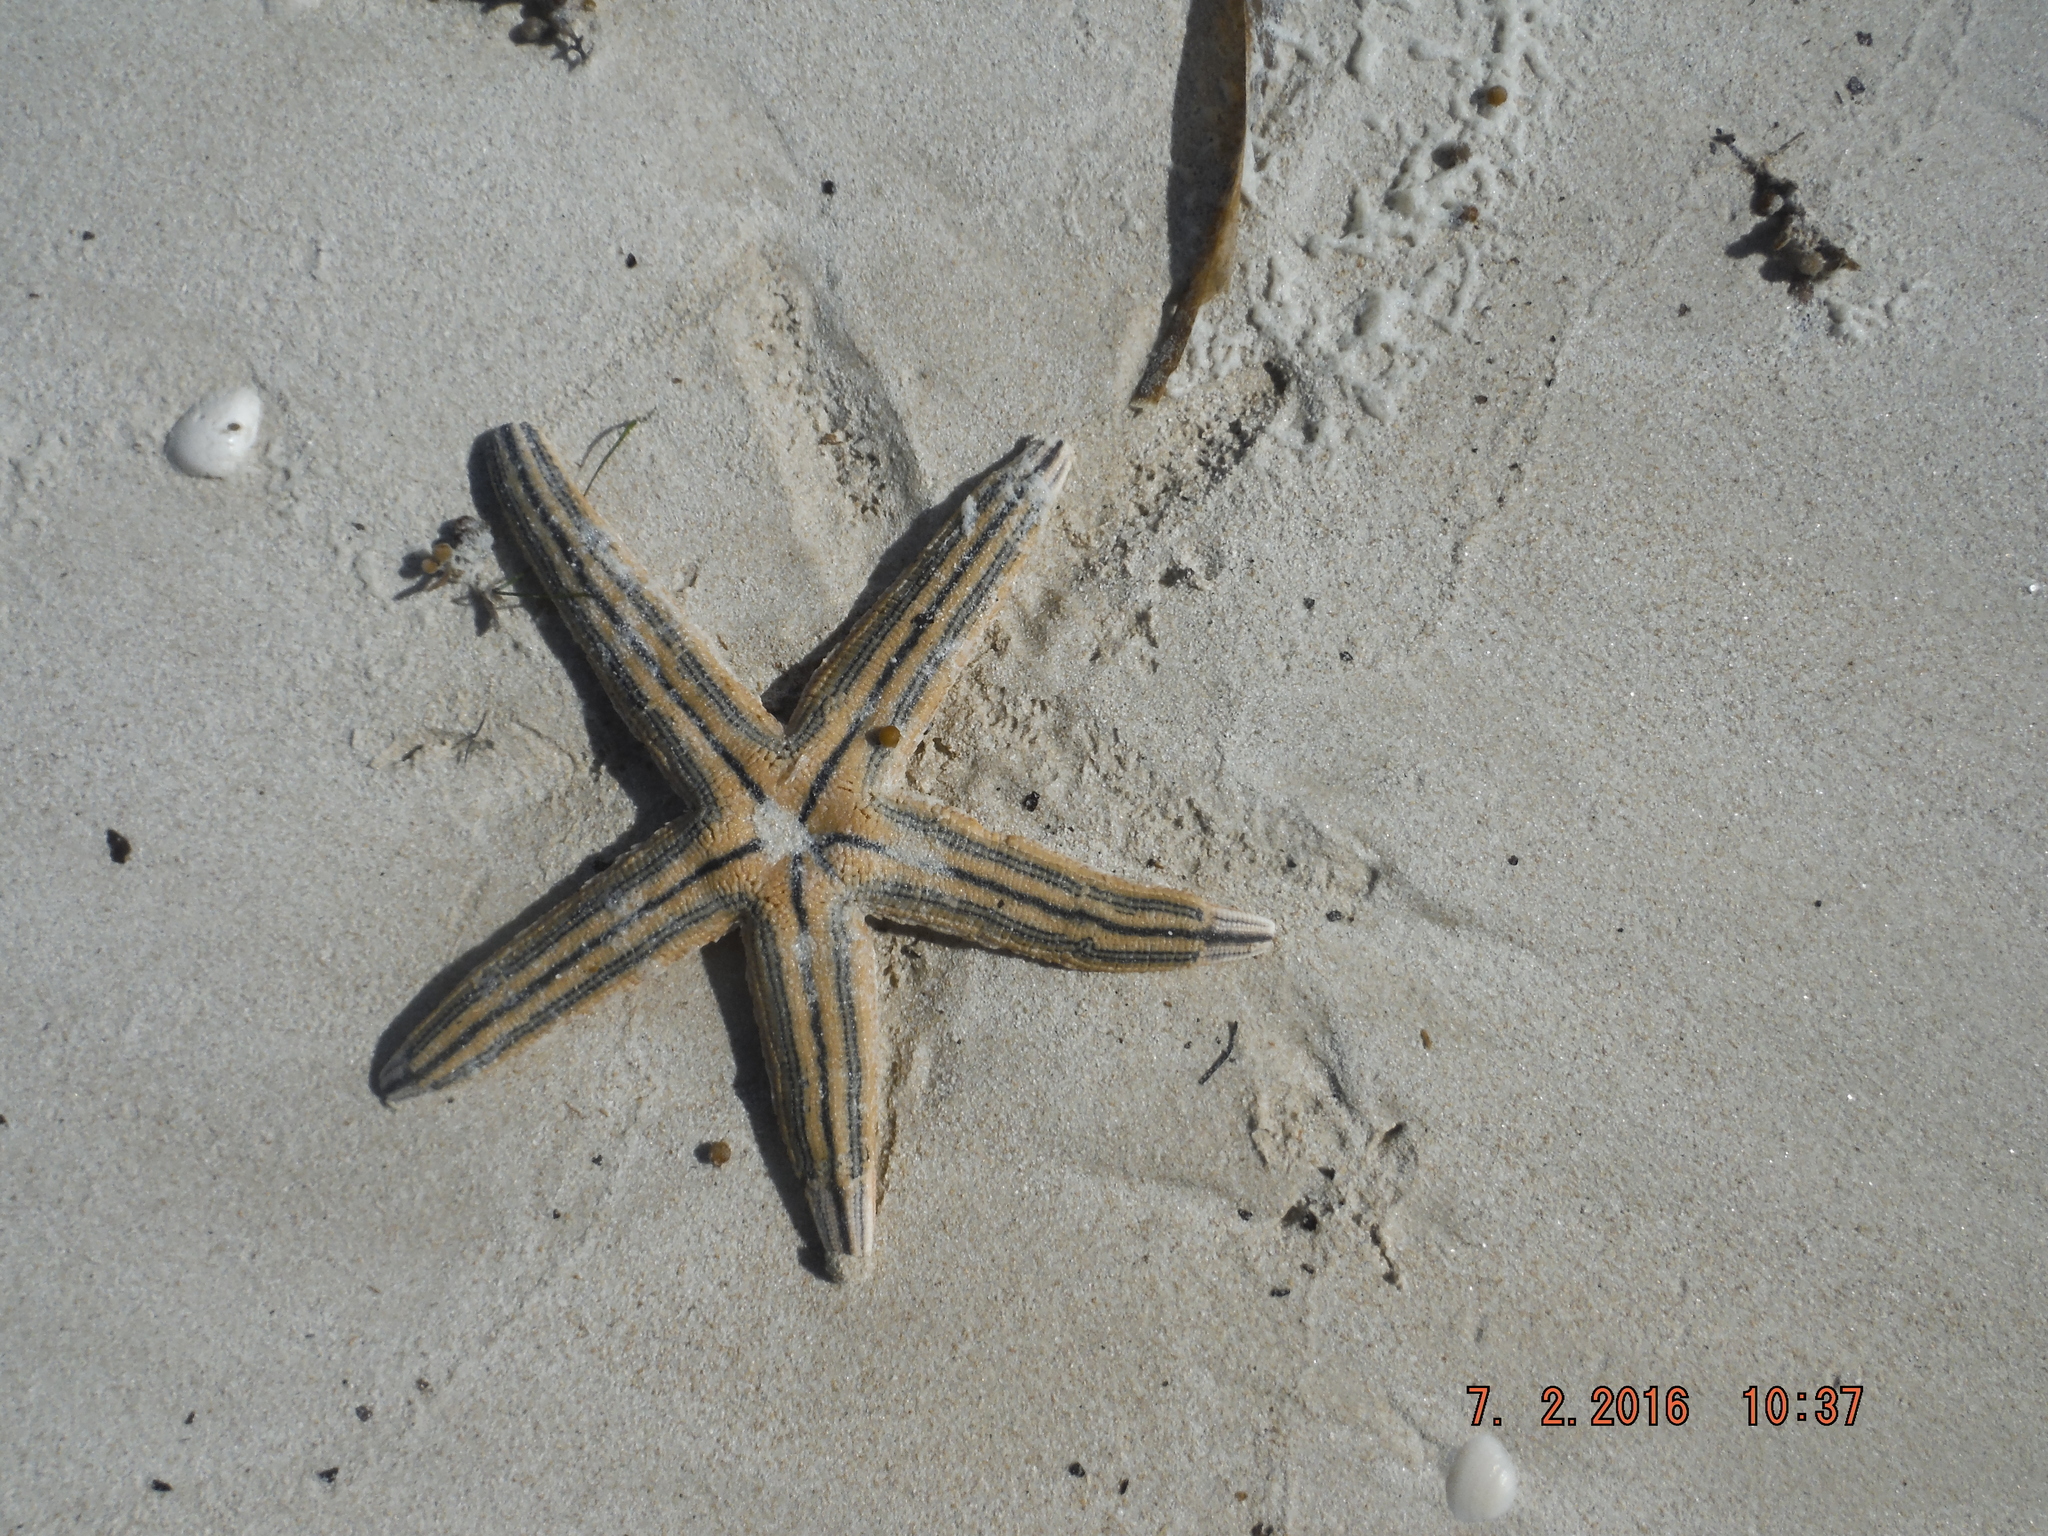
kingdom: Animalia
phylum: Echinodermata
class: Asteroidea
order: Paxillosida
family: Luidiidae
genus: Luidia
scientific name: Luidia clathrata
